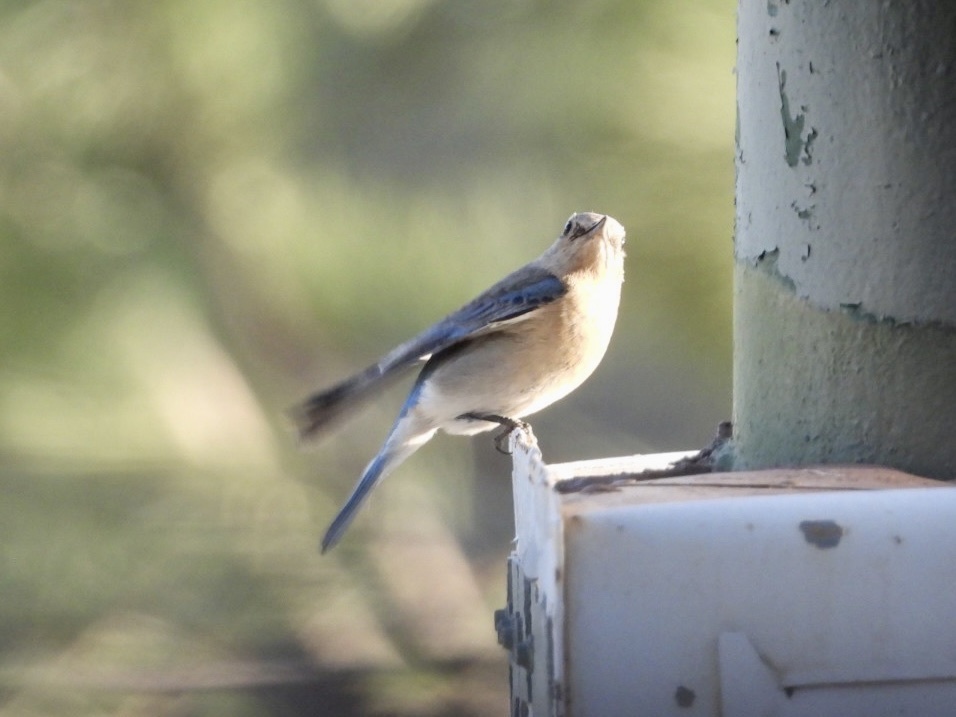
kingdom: Animalia
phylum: Chordata
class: Aves
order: Passeriformes
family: Turdidae
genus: Sialia
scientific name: Sialia currucoides
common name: Mountain bluebird
